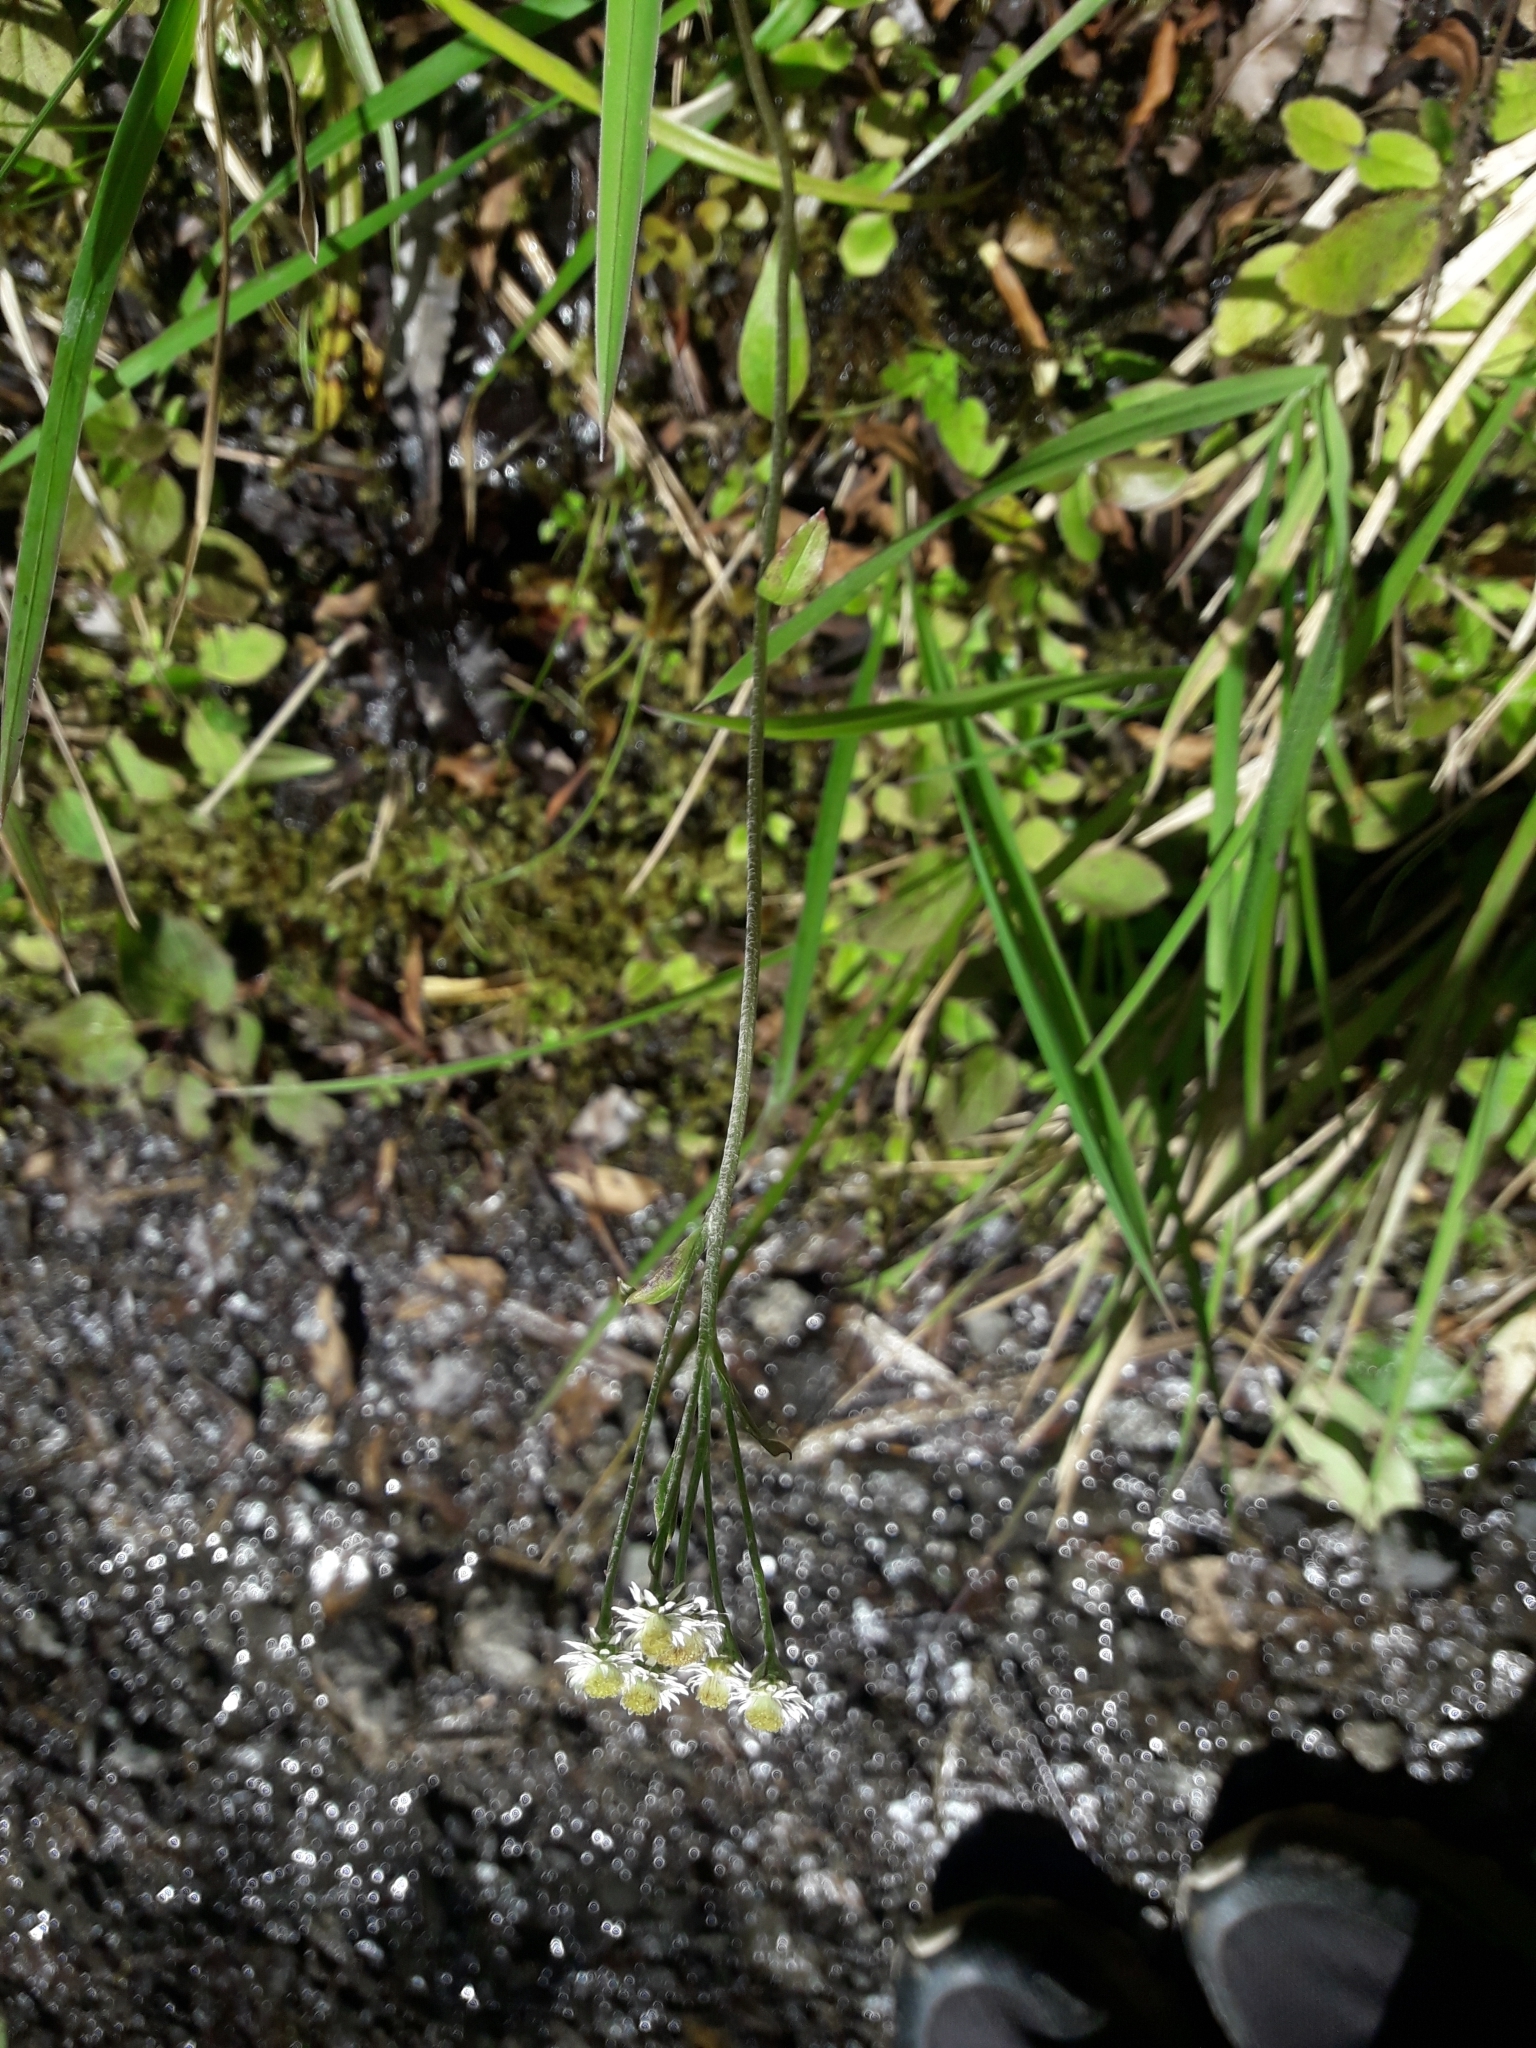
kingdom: Plantae
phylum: Tracheophyta
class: Magnoliopsida
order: Asterales
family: Asteraceae
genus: Anaphalioides
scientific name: Anaphalioides trinervis
